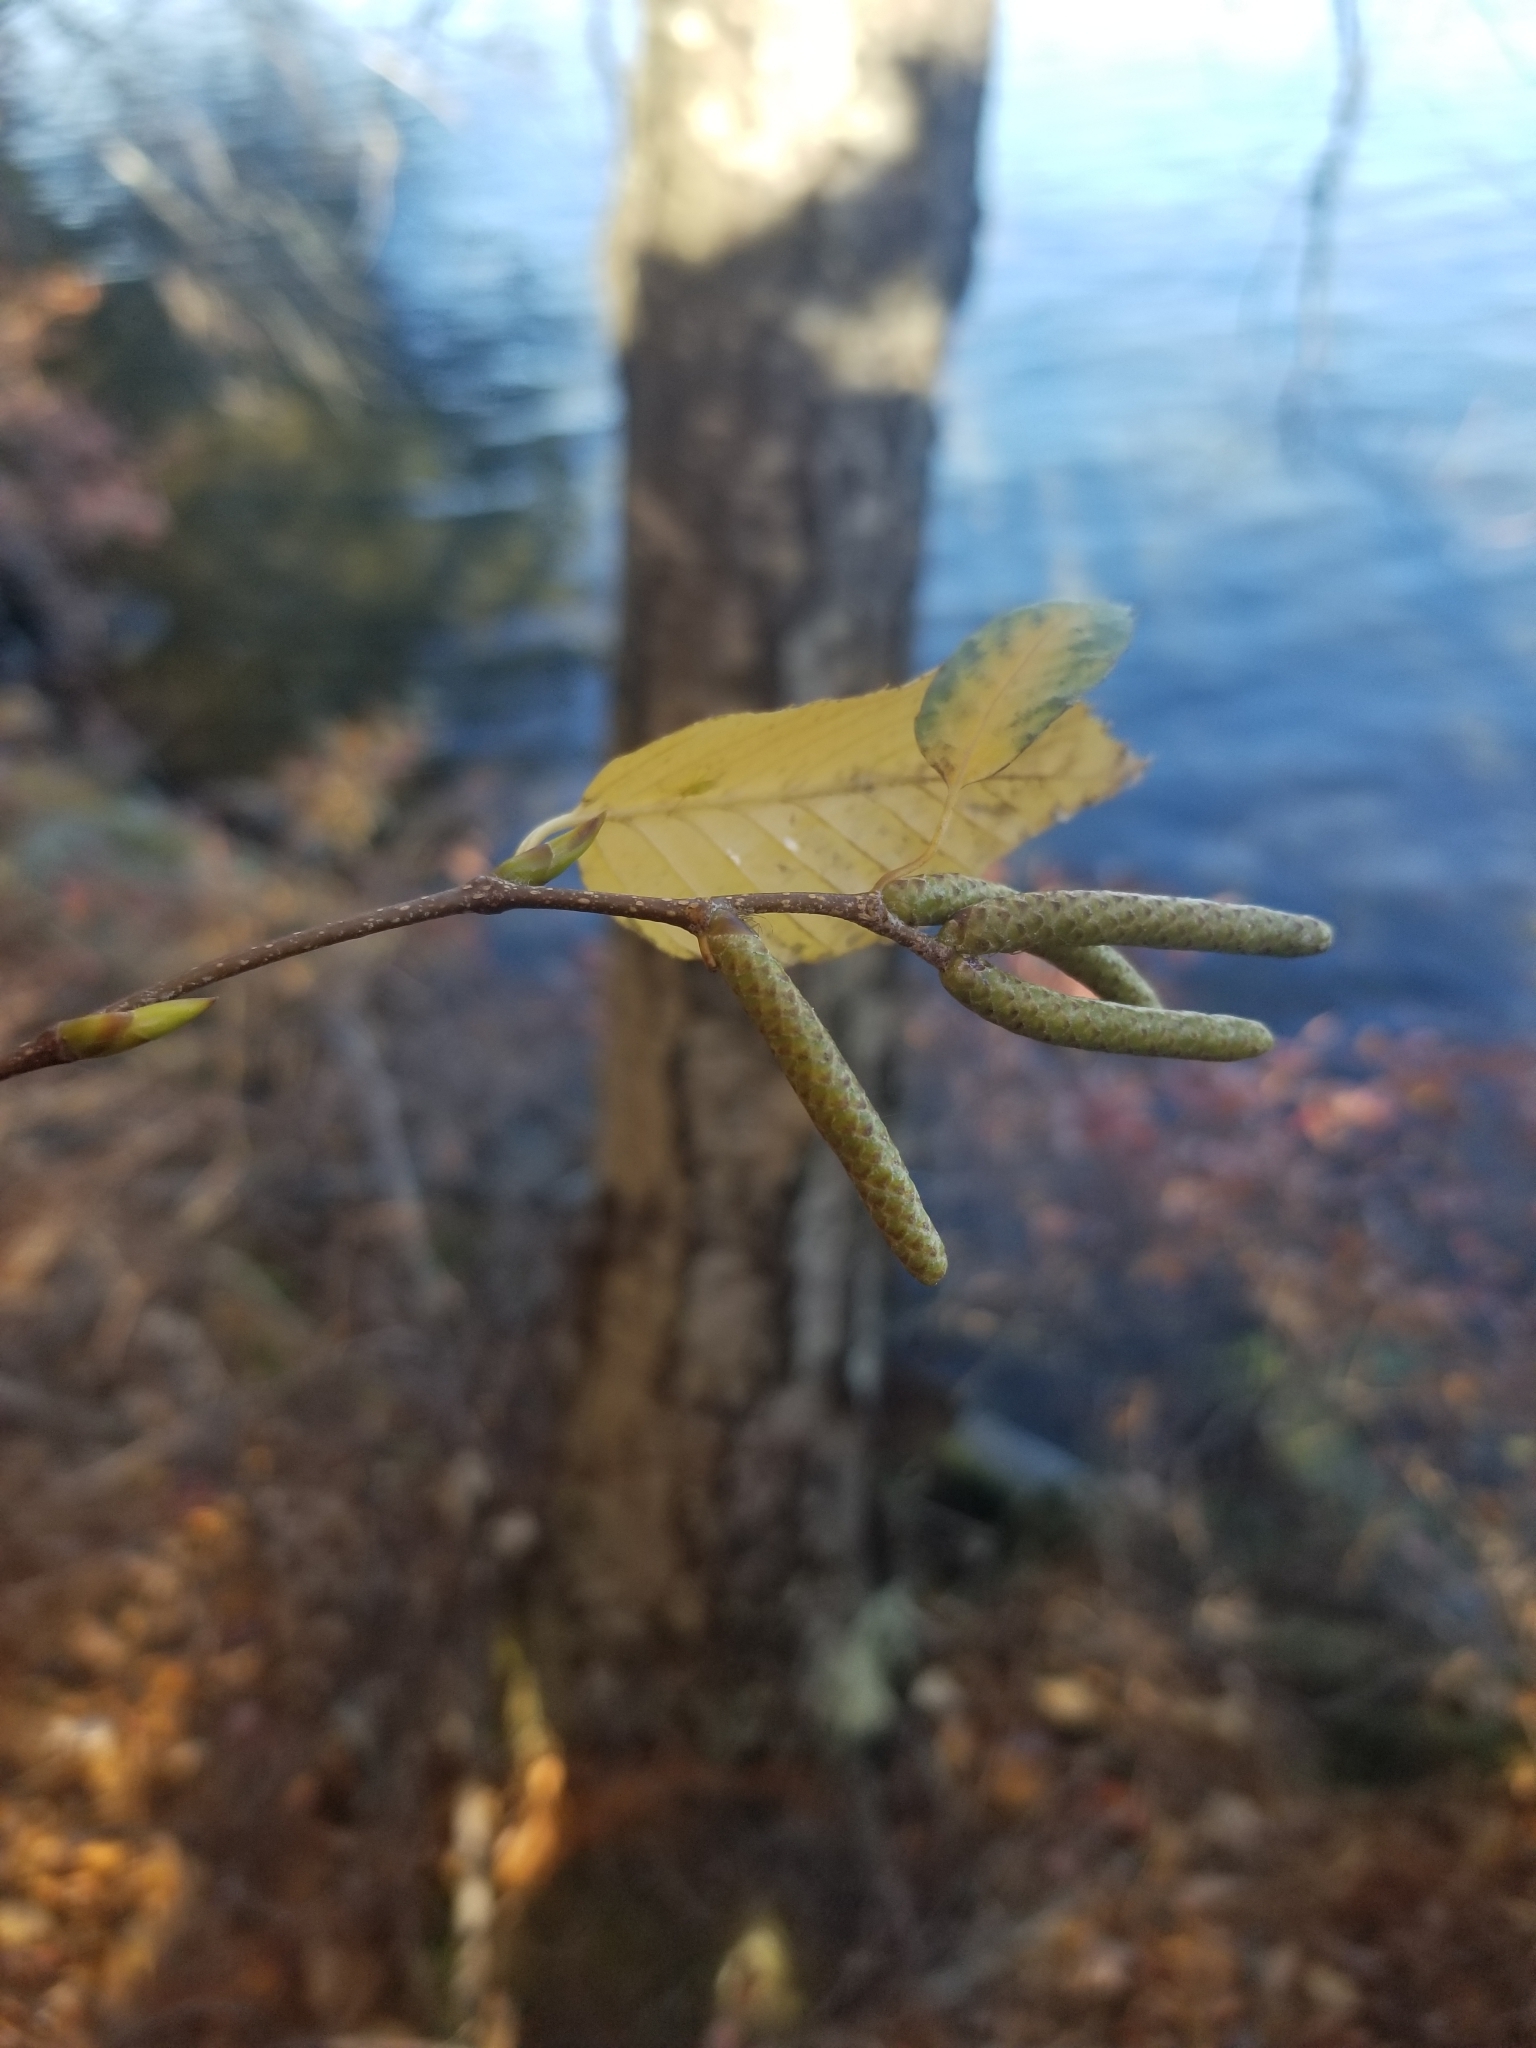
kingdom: Plantae
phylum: Tracheophyta
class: Magnoliopsida
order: Fagales
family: Betulaceae
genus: Betula
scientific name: Betula lenta
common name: Black birch
